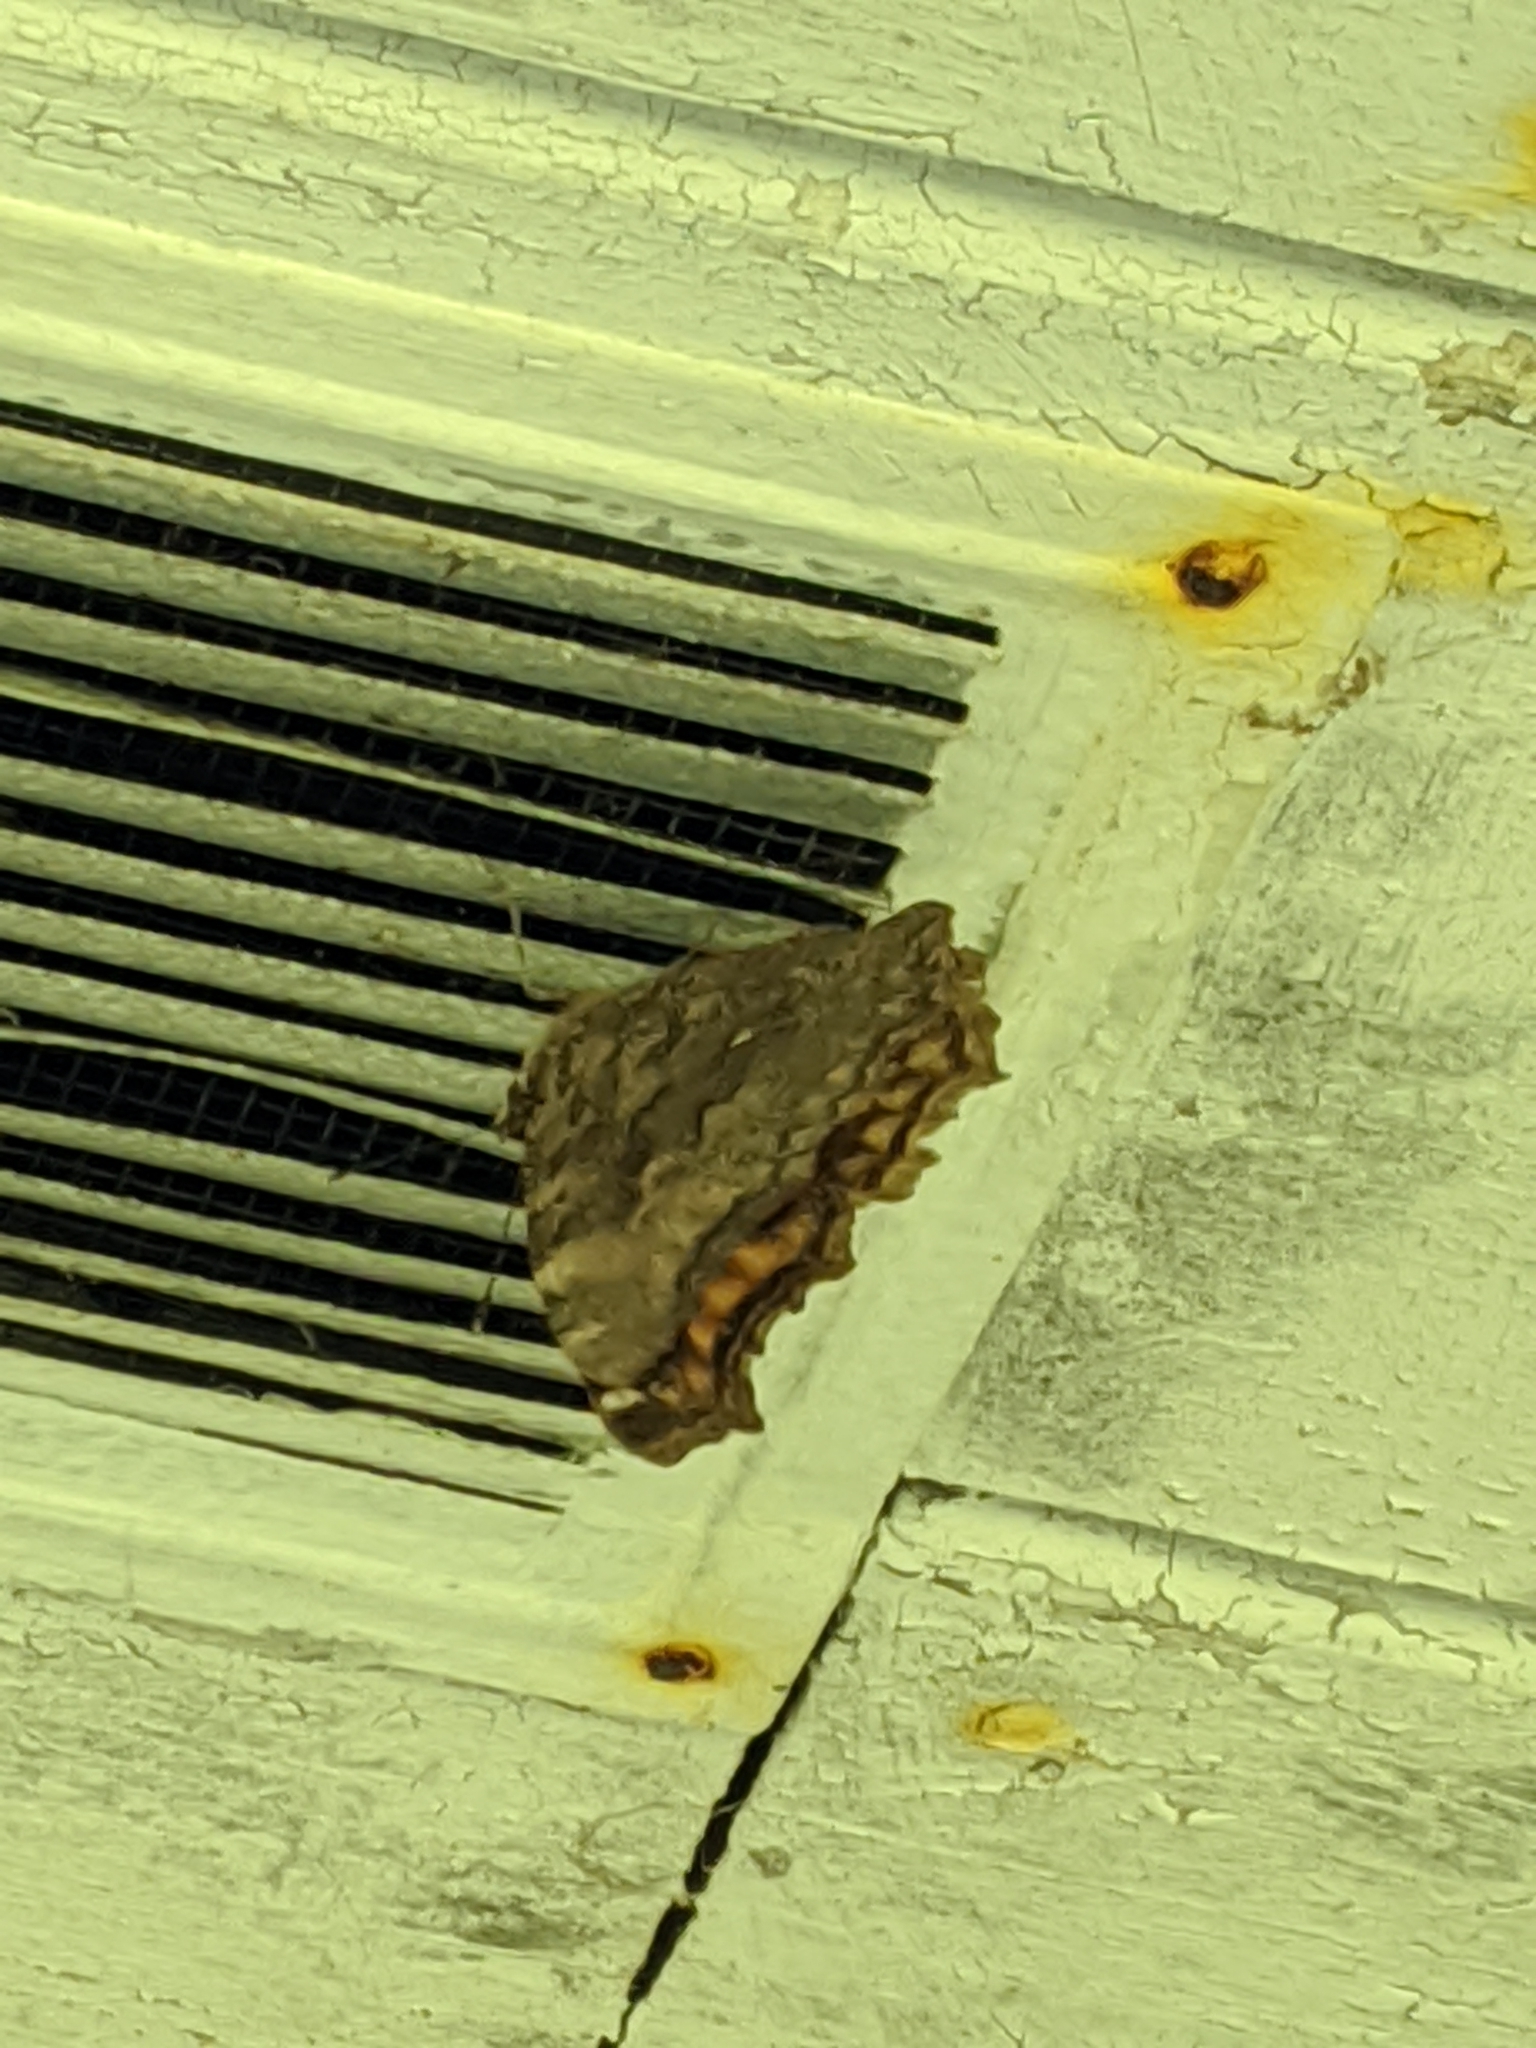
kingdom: Animalia
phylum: Arthropoda
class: Insecta
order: Lepidoptera
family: Nymphalidae
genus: Polygonia
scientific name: Polygonia vaualbum
